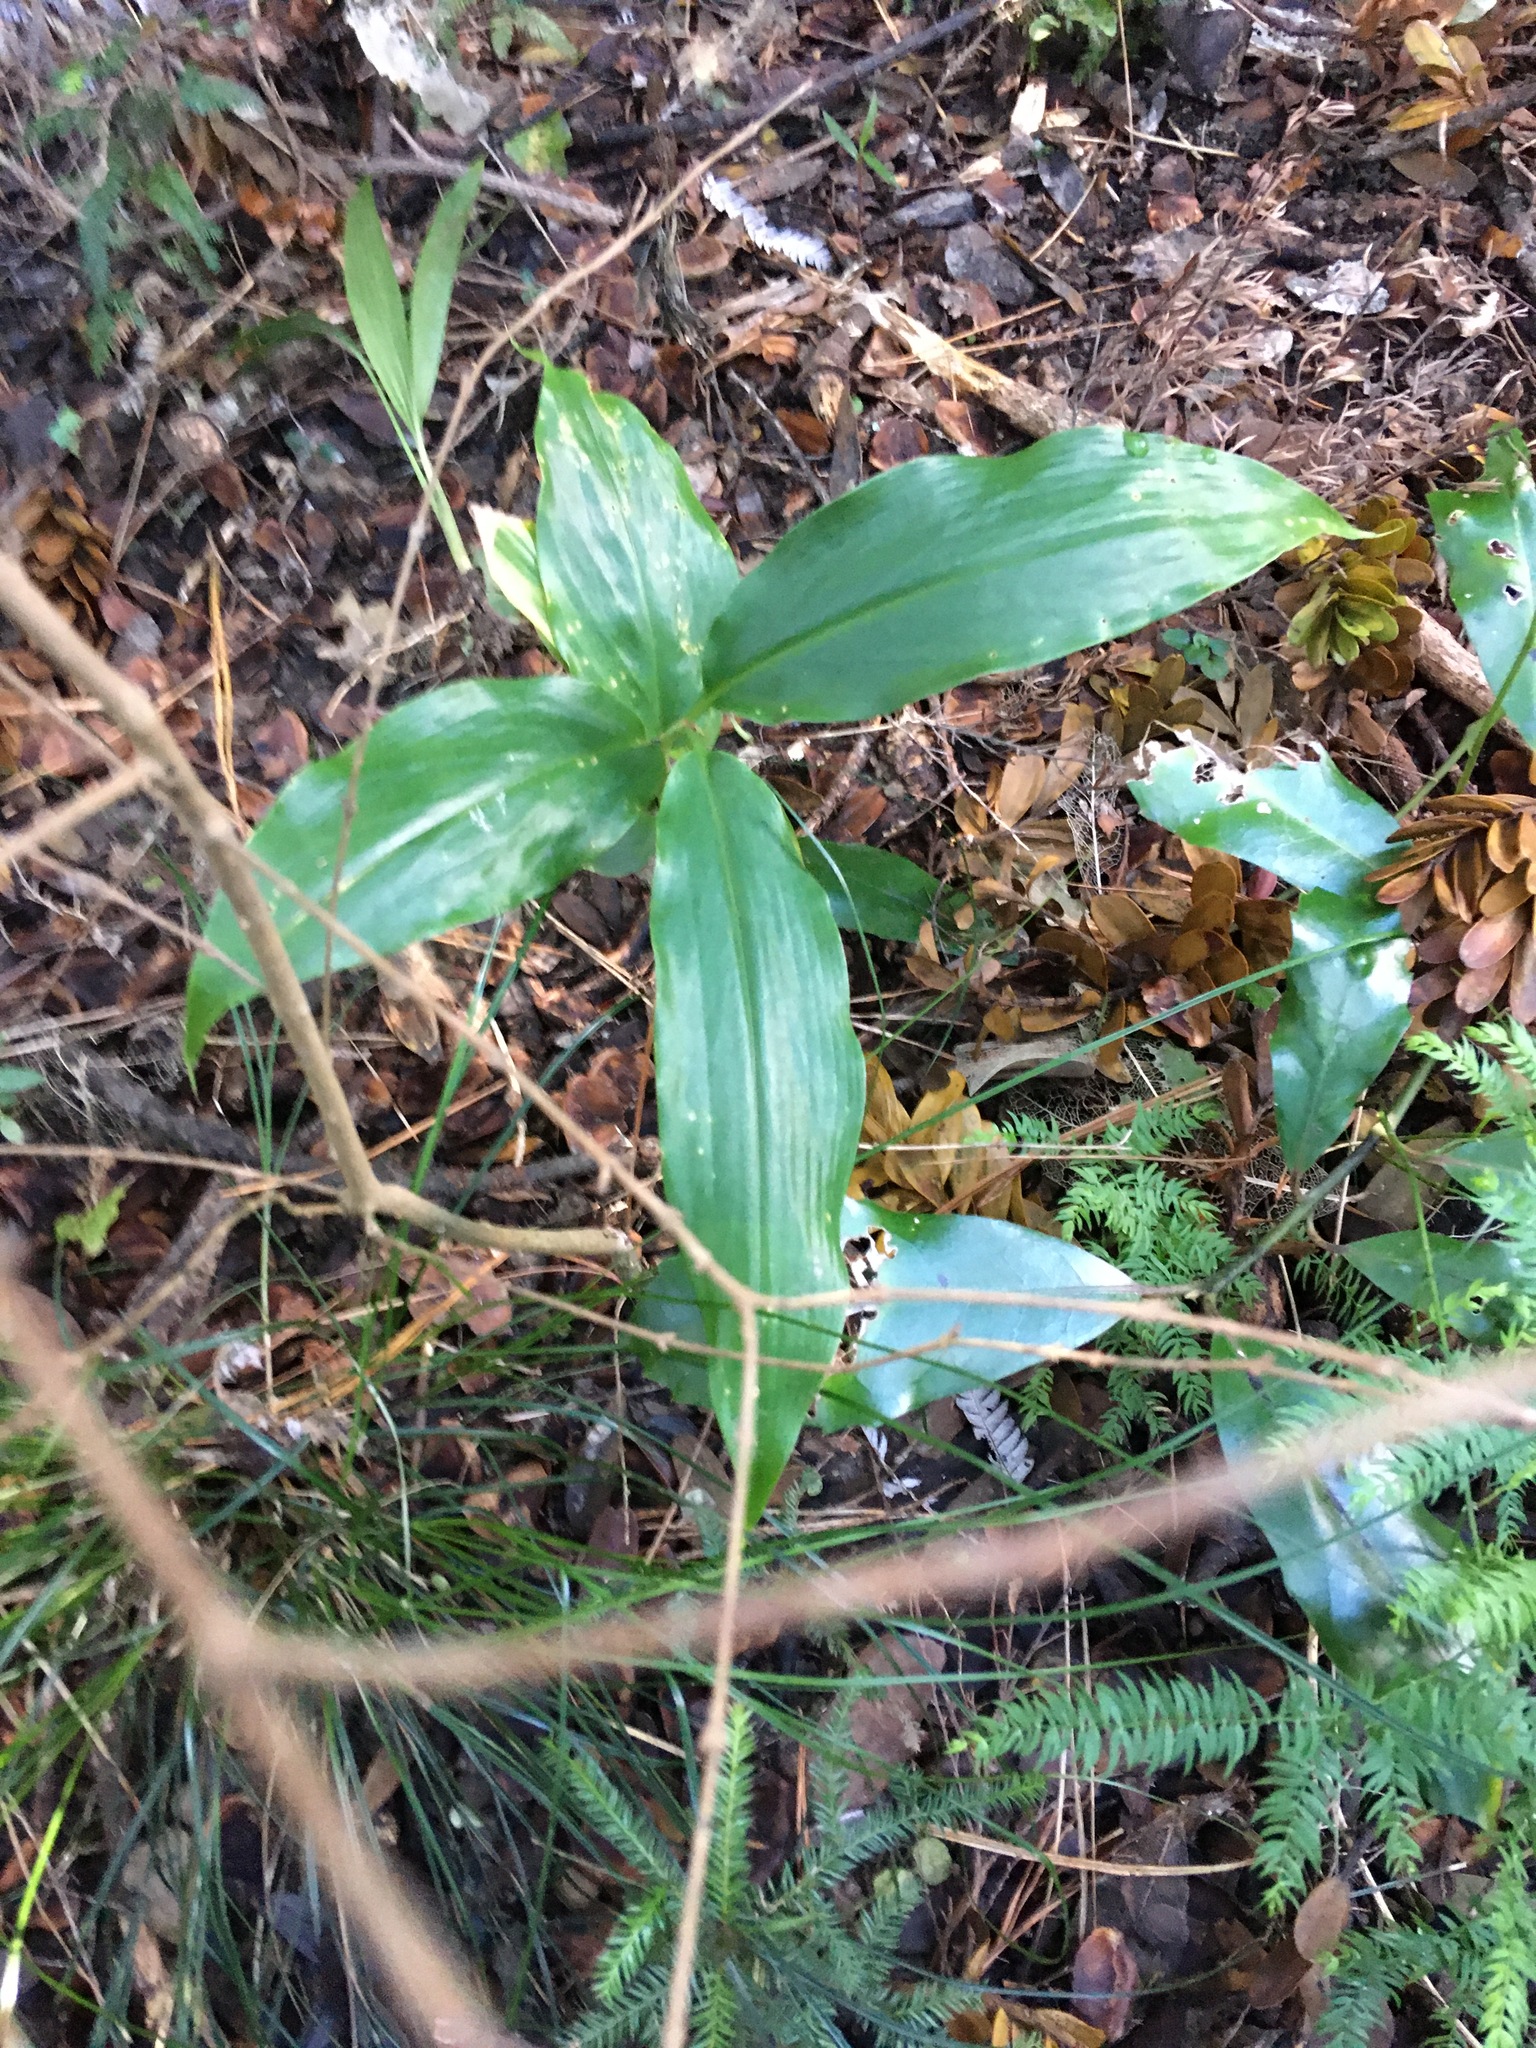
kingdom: Plantae
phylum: Tracheophyta
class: Liliopsida
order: Zingiberales
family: Zingiberaceae
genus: Hedychium
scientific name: Hedychium gardnerianum
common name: Himalayan ginger
